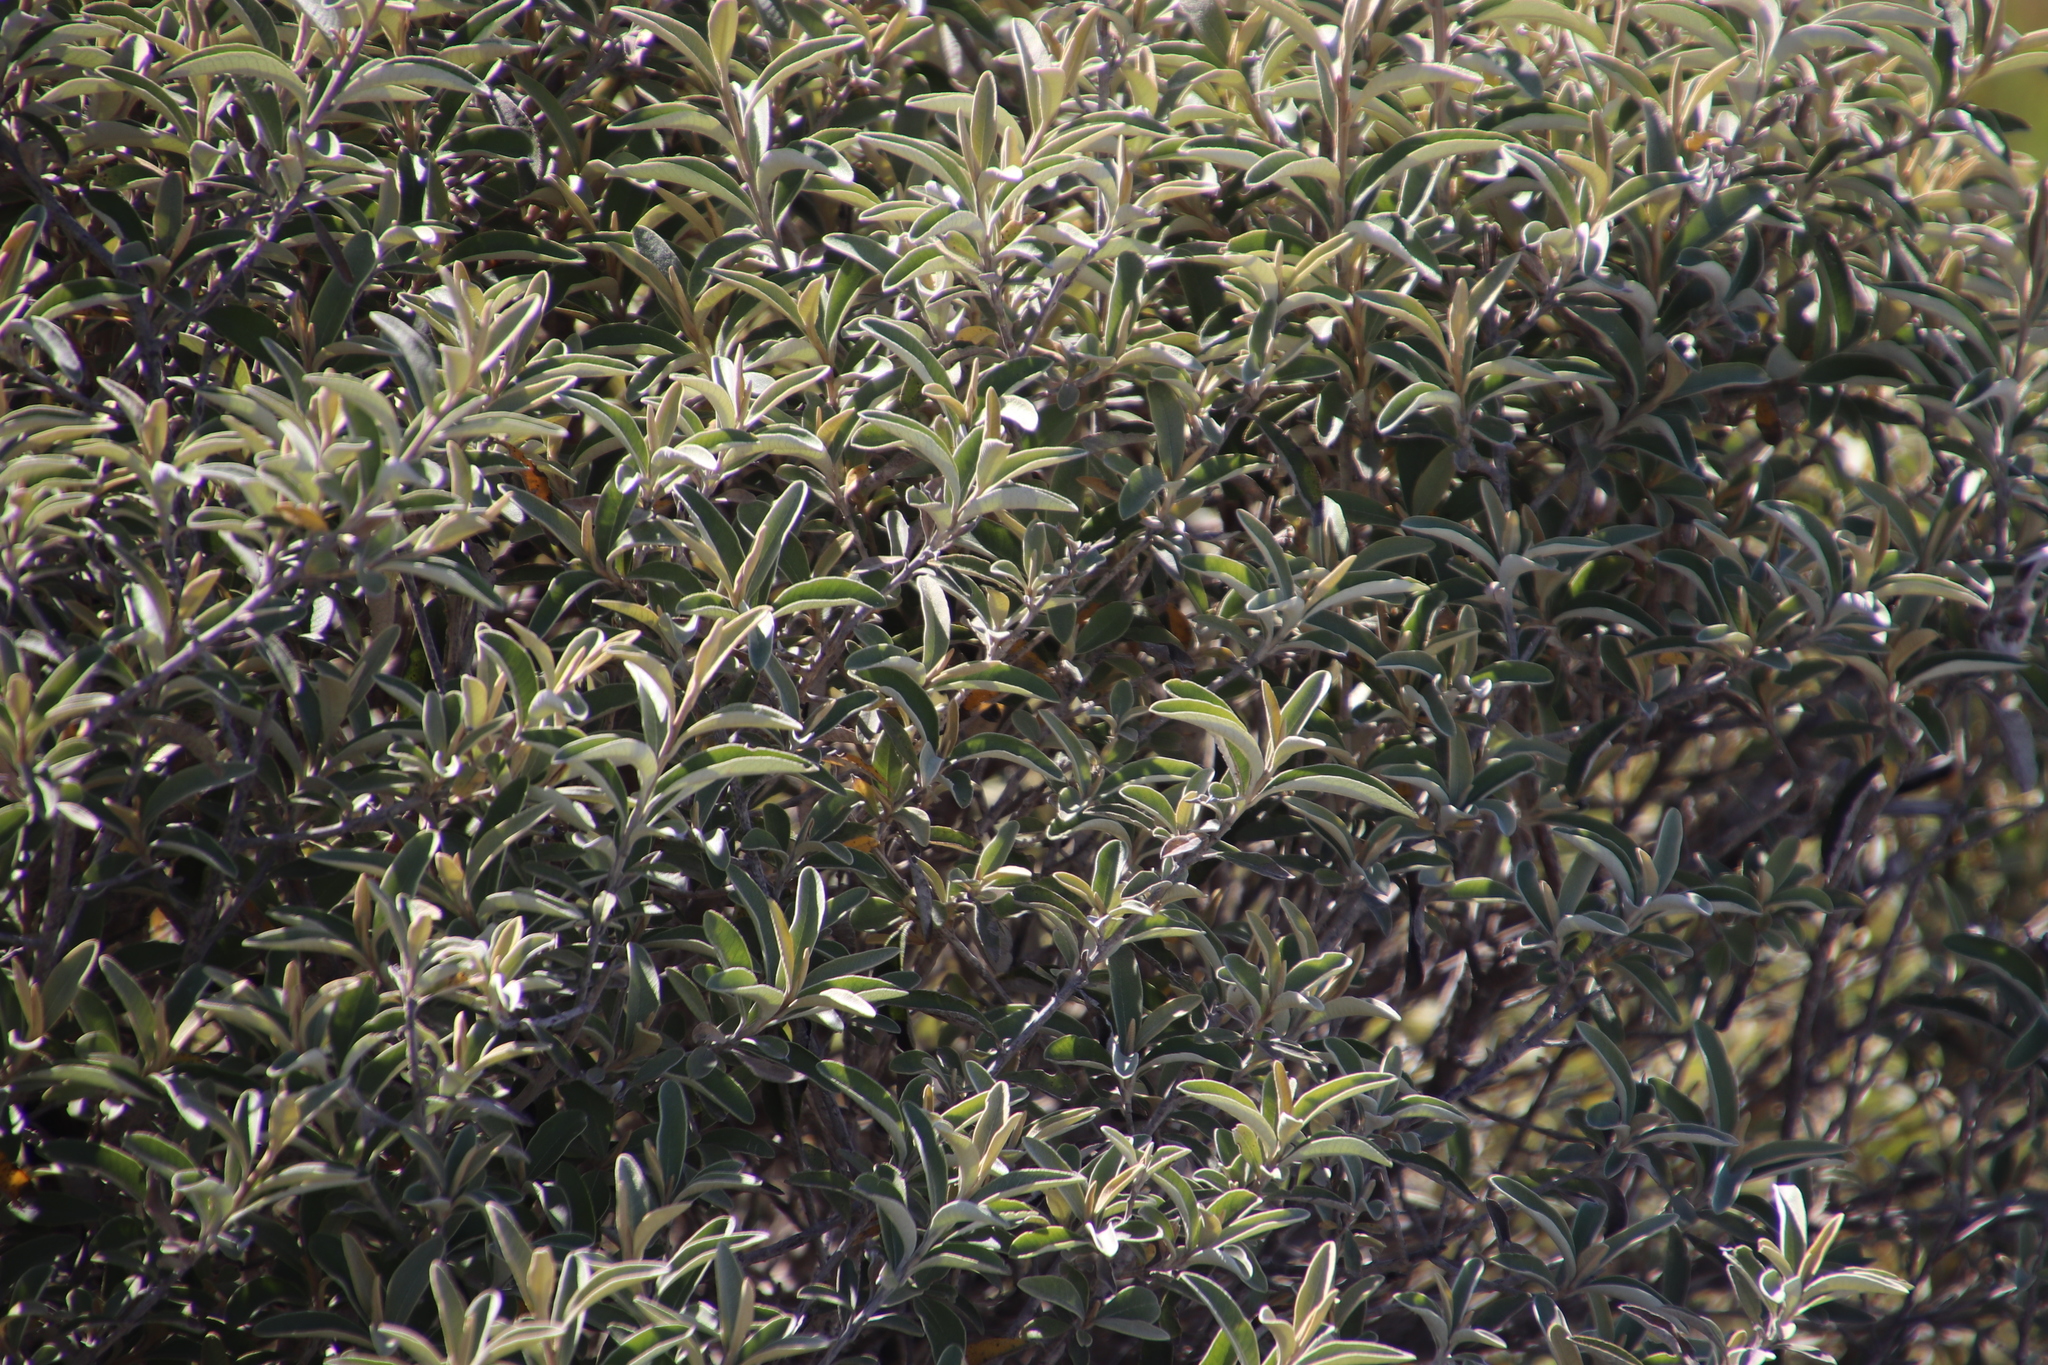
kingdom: Plantae
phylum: Tracheophyta
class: Magnoliopsida
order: Asterales
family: Asteraceae
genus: Tarchonanthus
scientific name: Tarchonanthus littoralis
